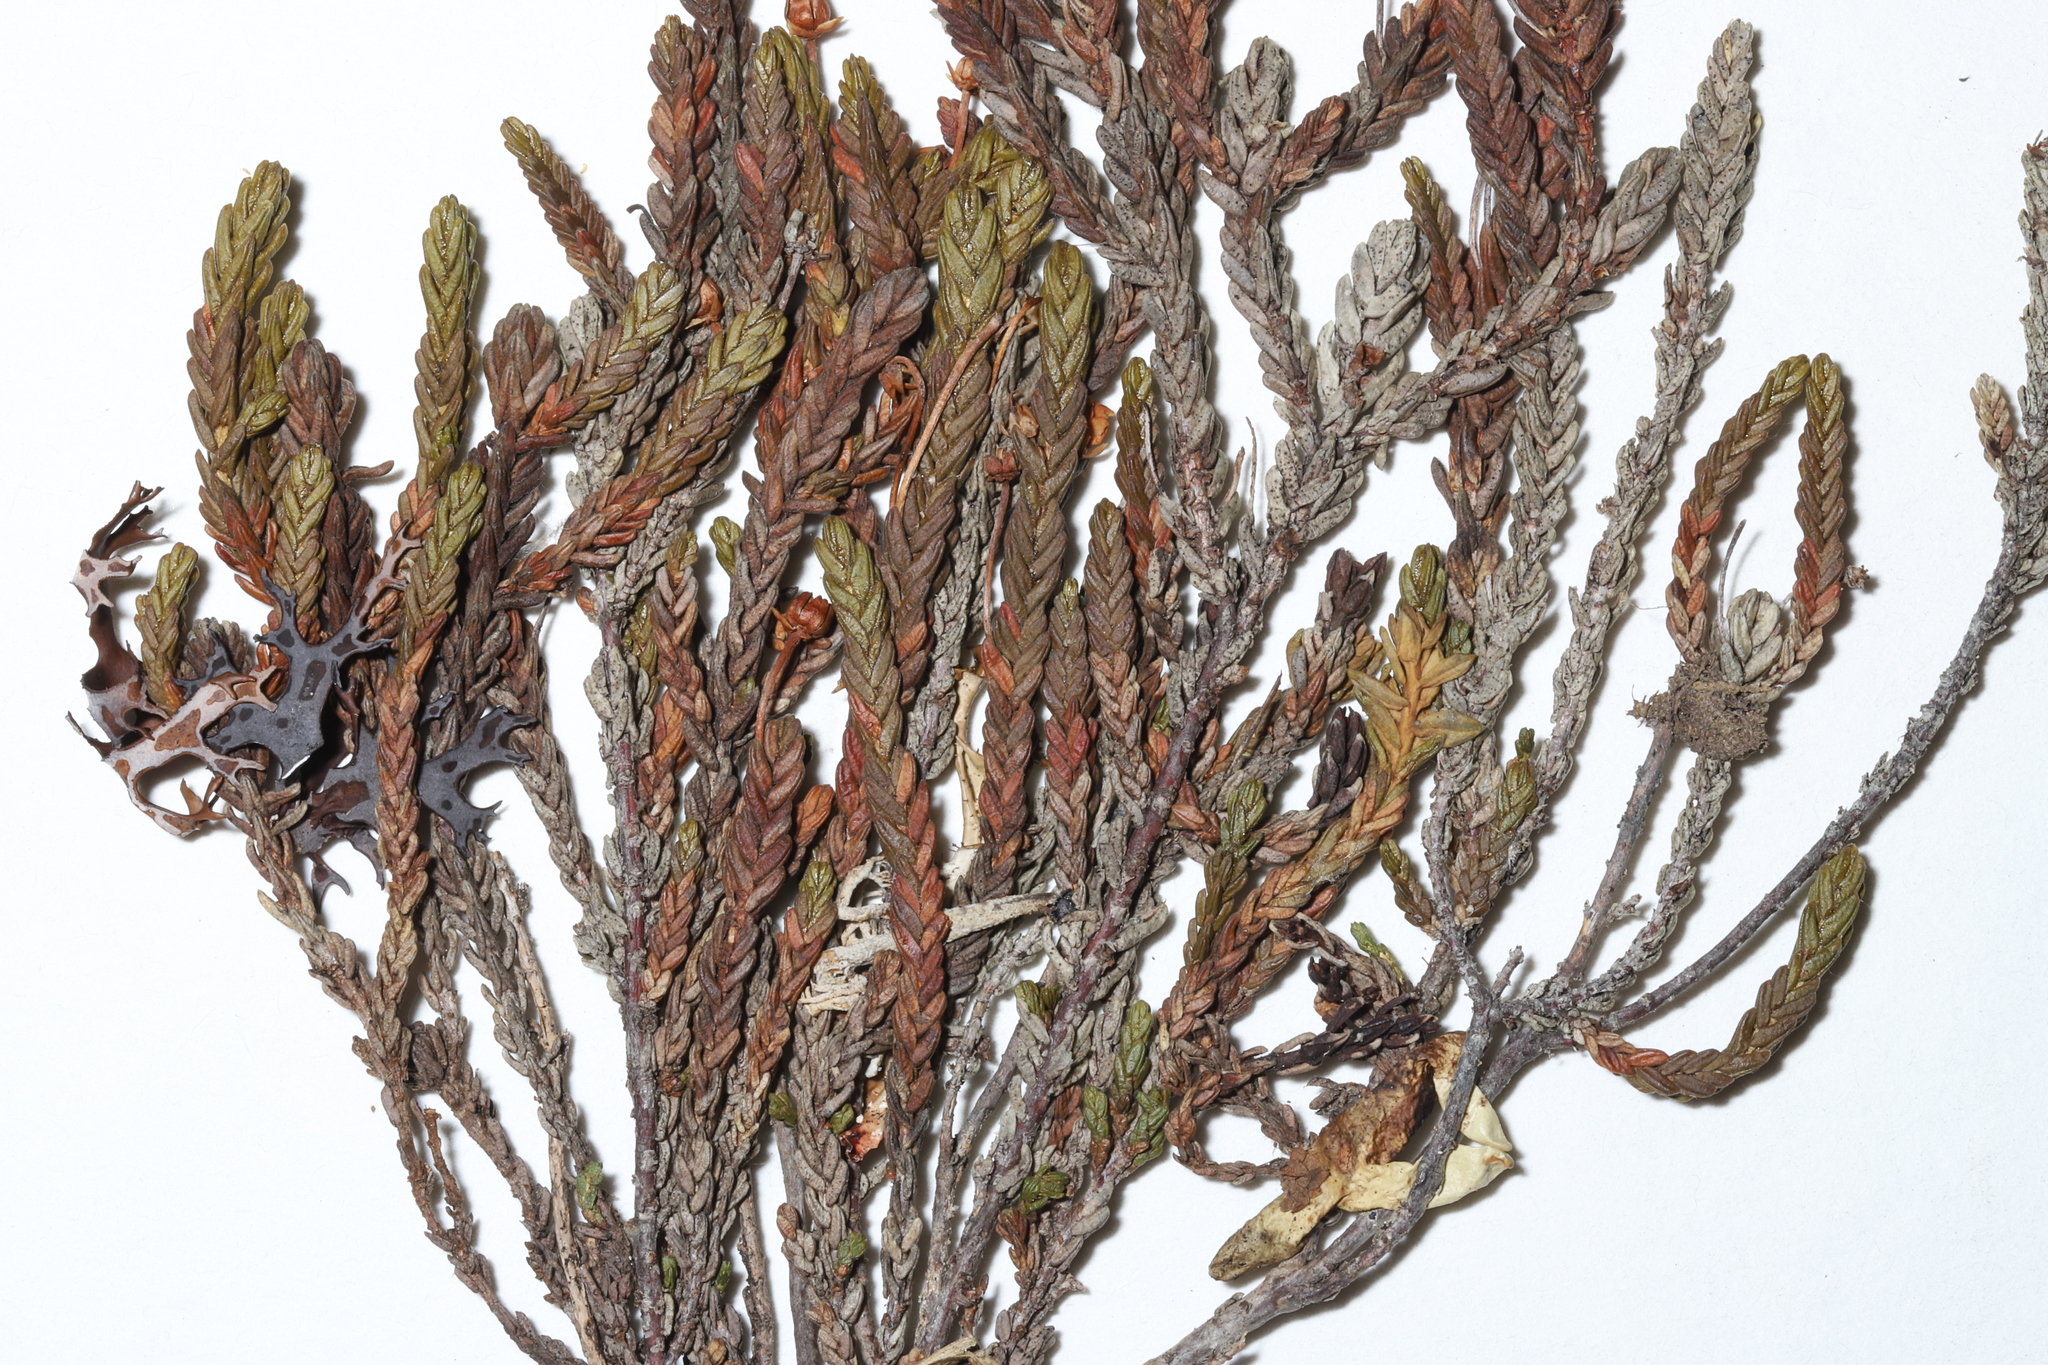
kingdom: Plantae
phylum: Tracheophyta
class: Magnoliopsida
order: Ericales
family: Ericaceae
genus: Cassiope
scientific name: Cassiope tetragona
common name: Arctic bell heather
